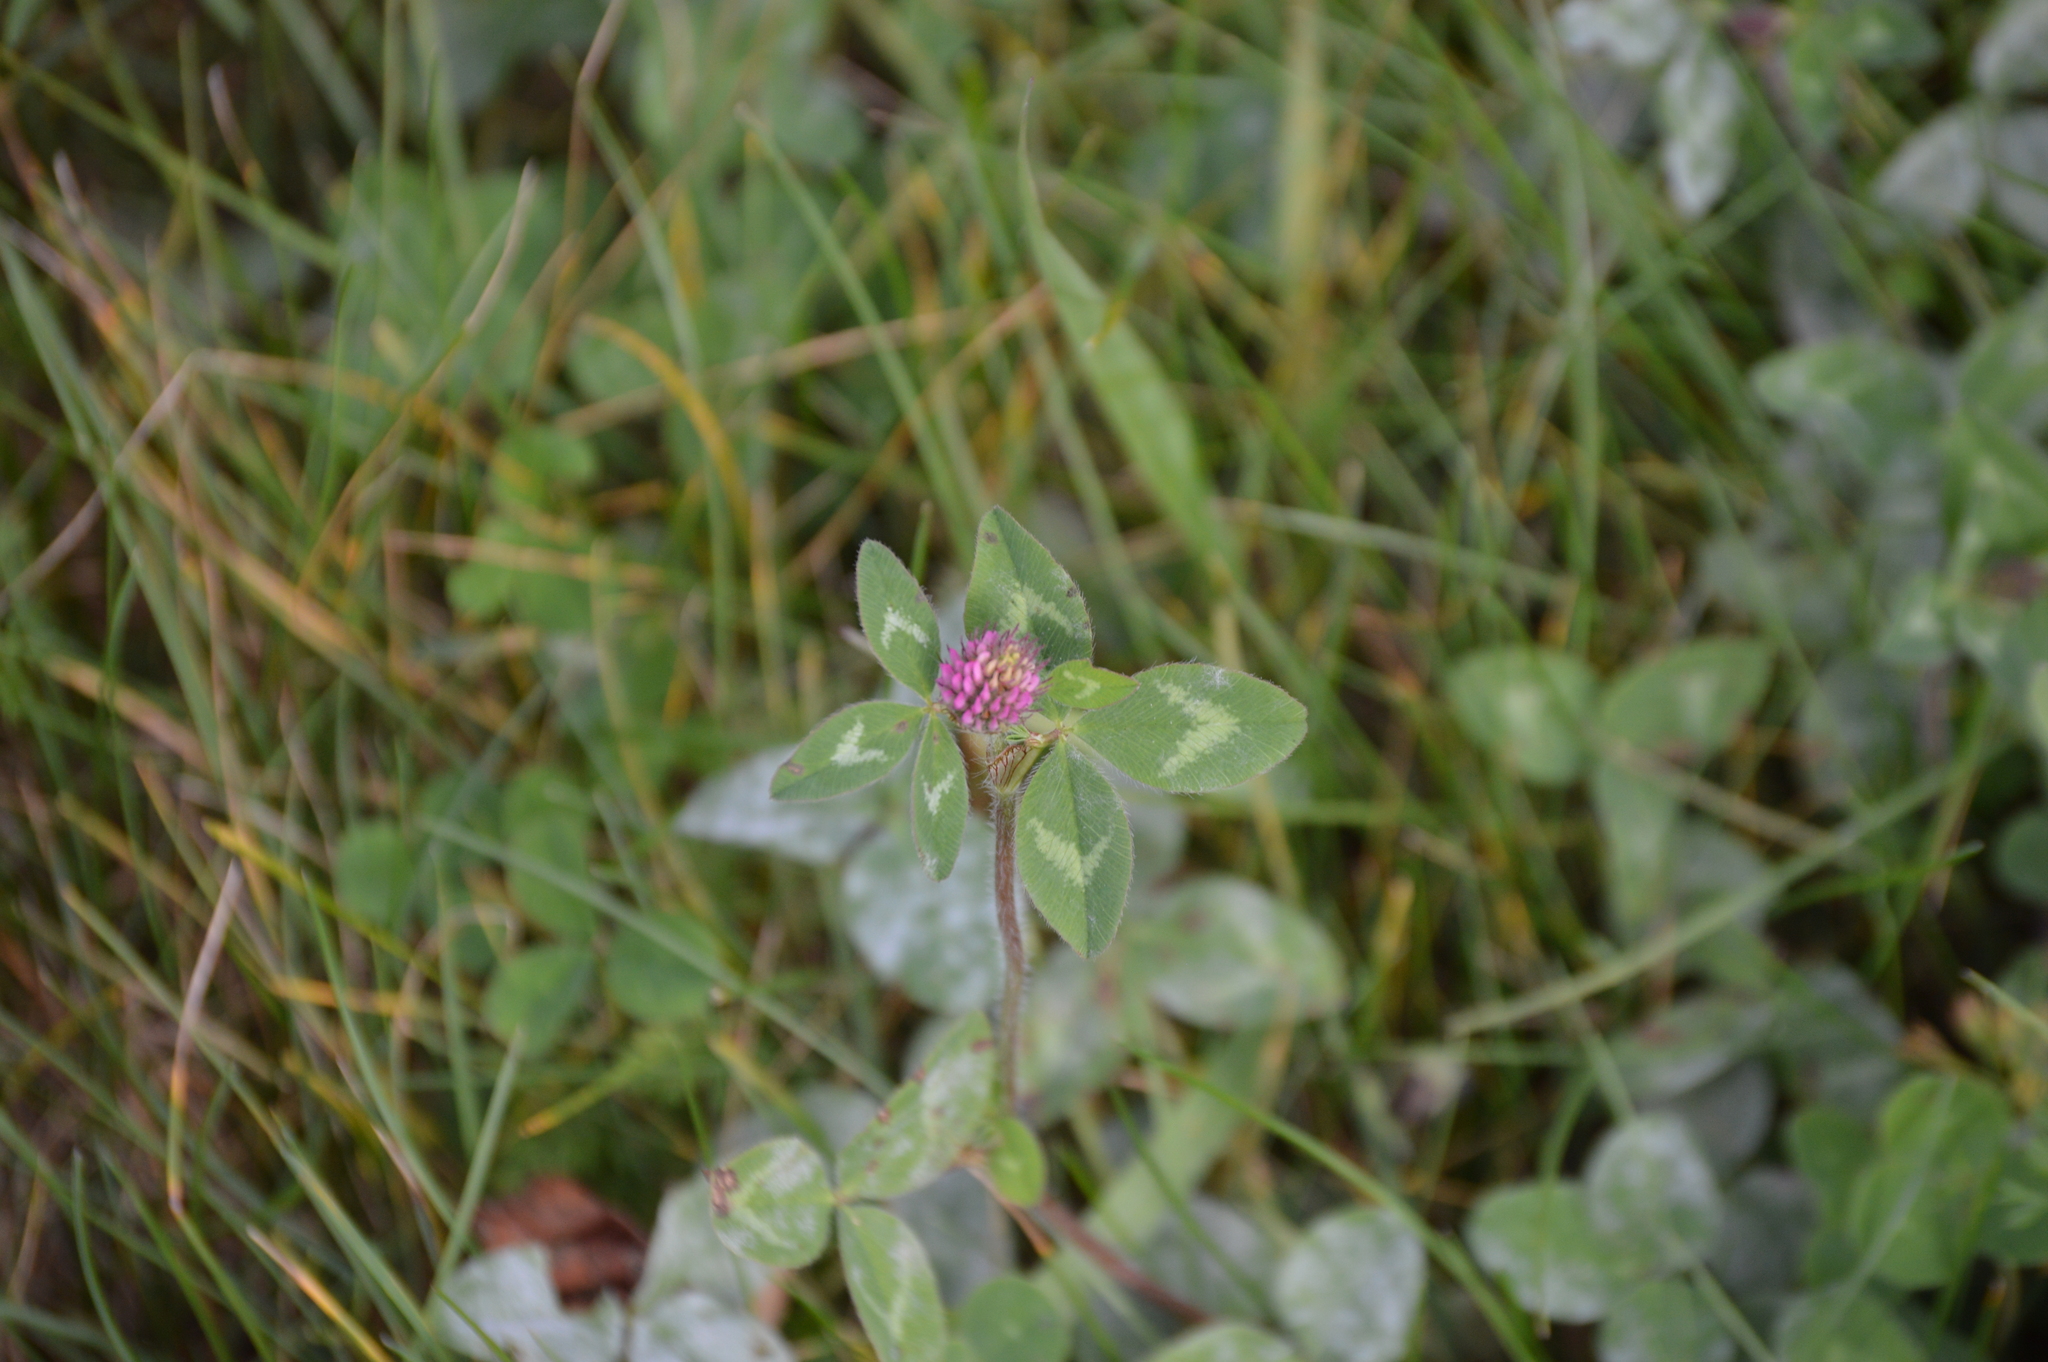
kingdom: Plantae
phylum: Tracheophyta
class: Magnoliopsida
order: Fabales
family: Fabaceae
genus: Trifolium
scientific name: Trifolium pratense
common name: Red clover
